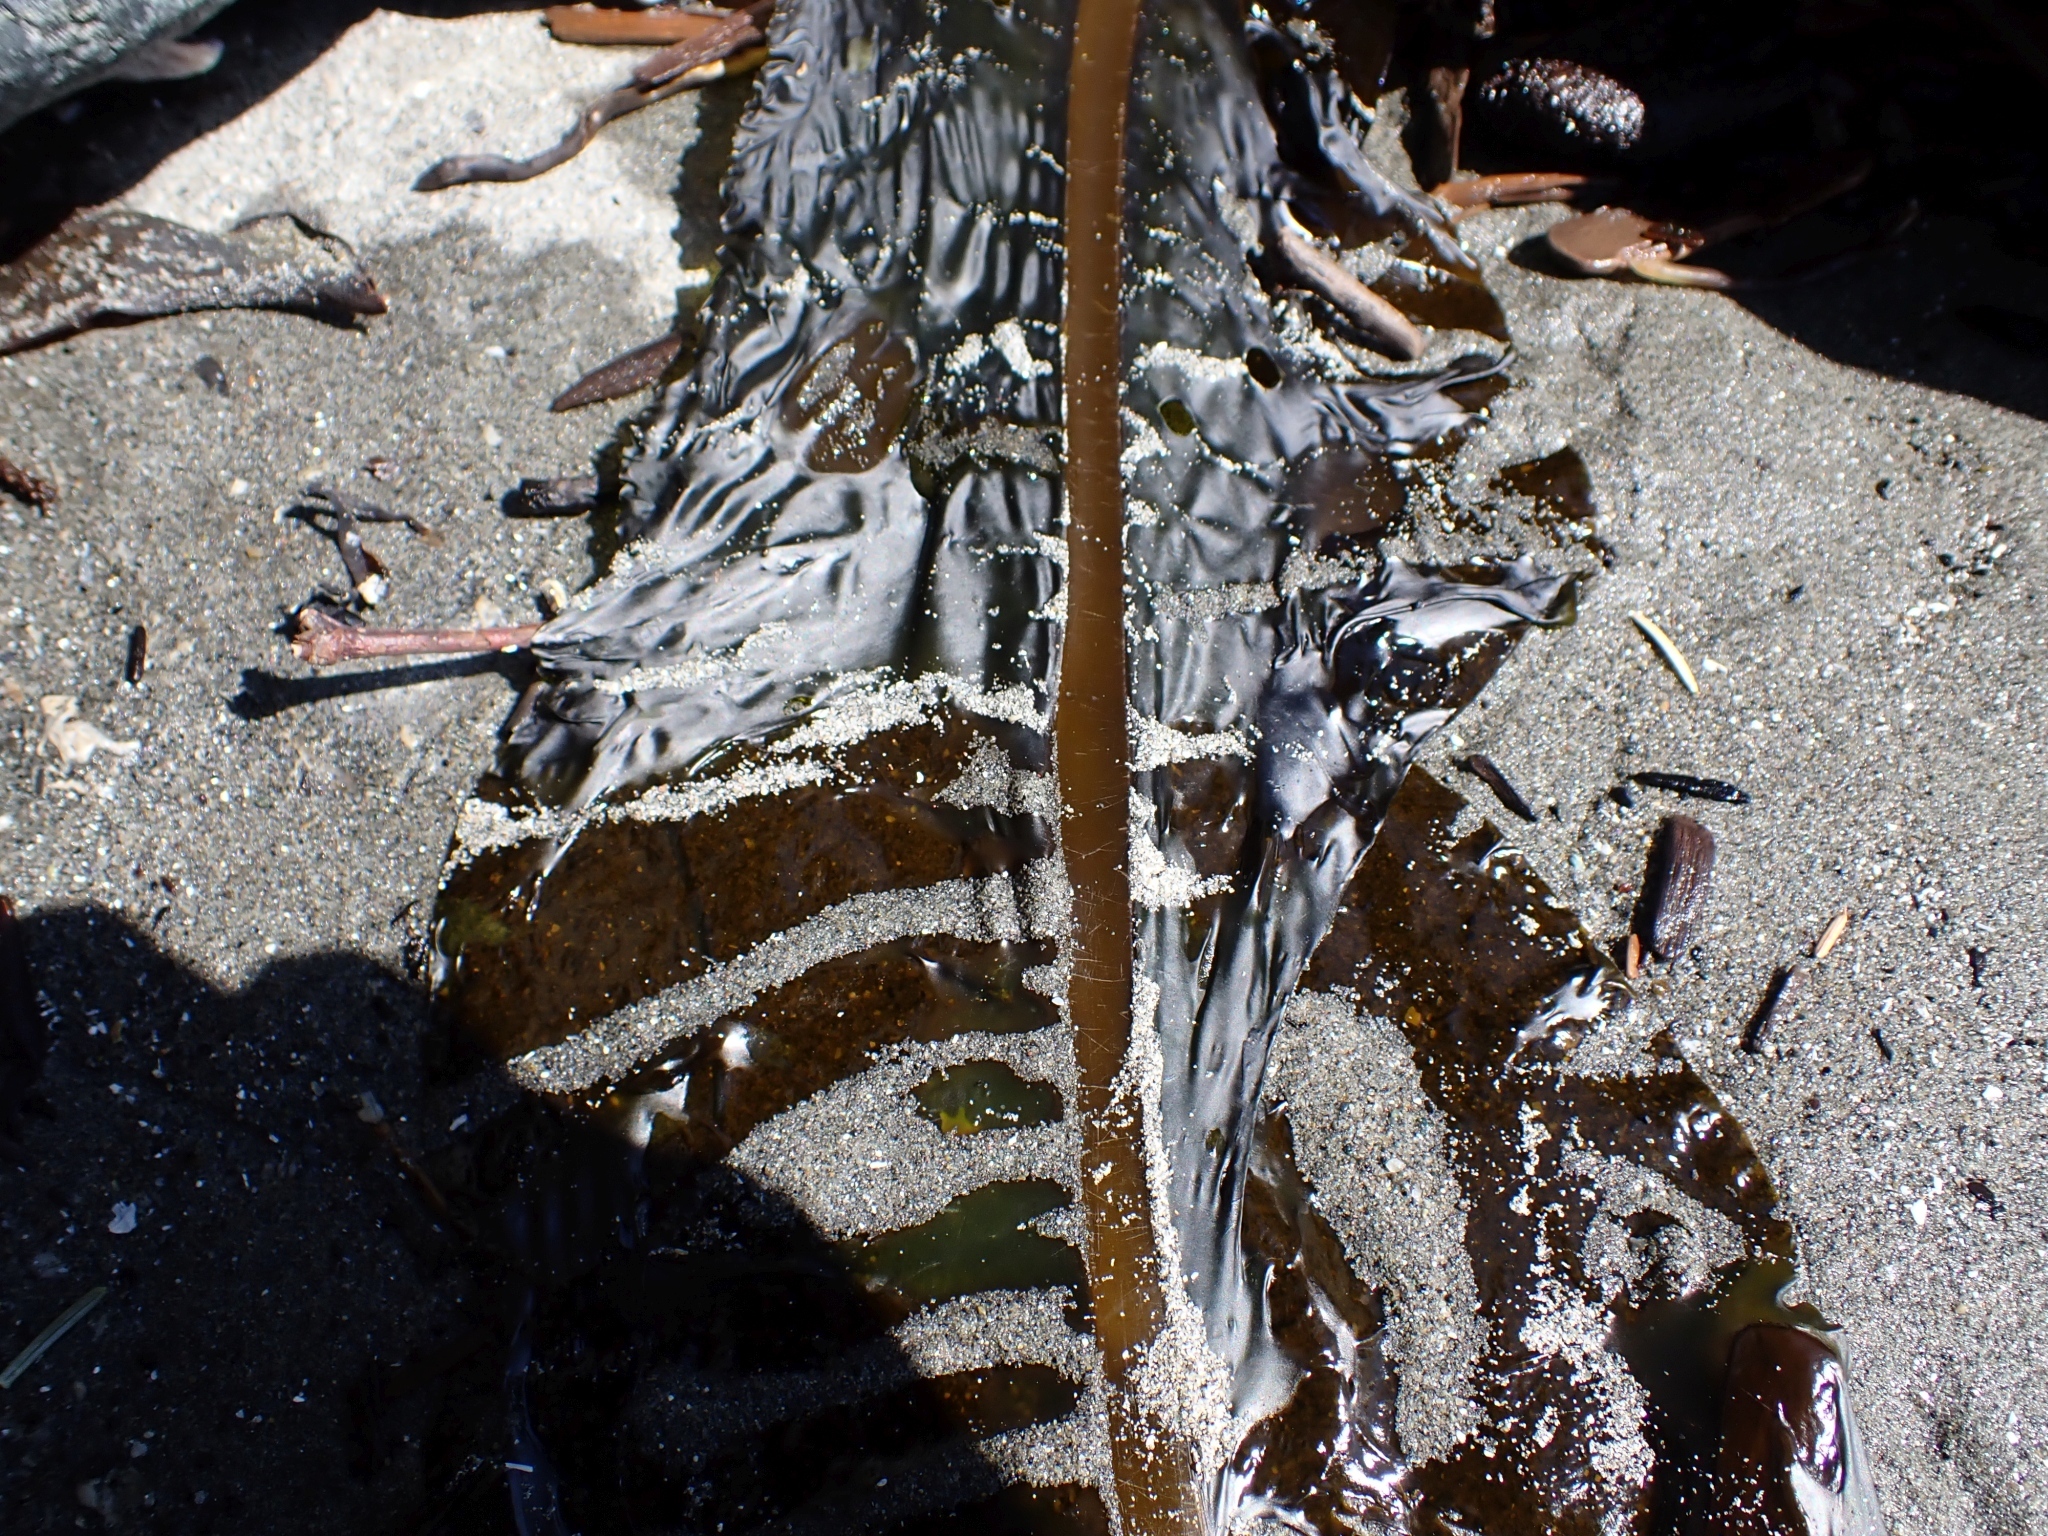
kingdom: Chromista
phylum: Ochrophyta
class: Phaeophyceae
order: Laminariales
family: Alariaceae
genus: Alaria
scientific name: Alaria marginata
